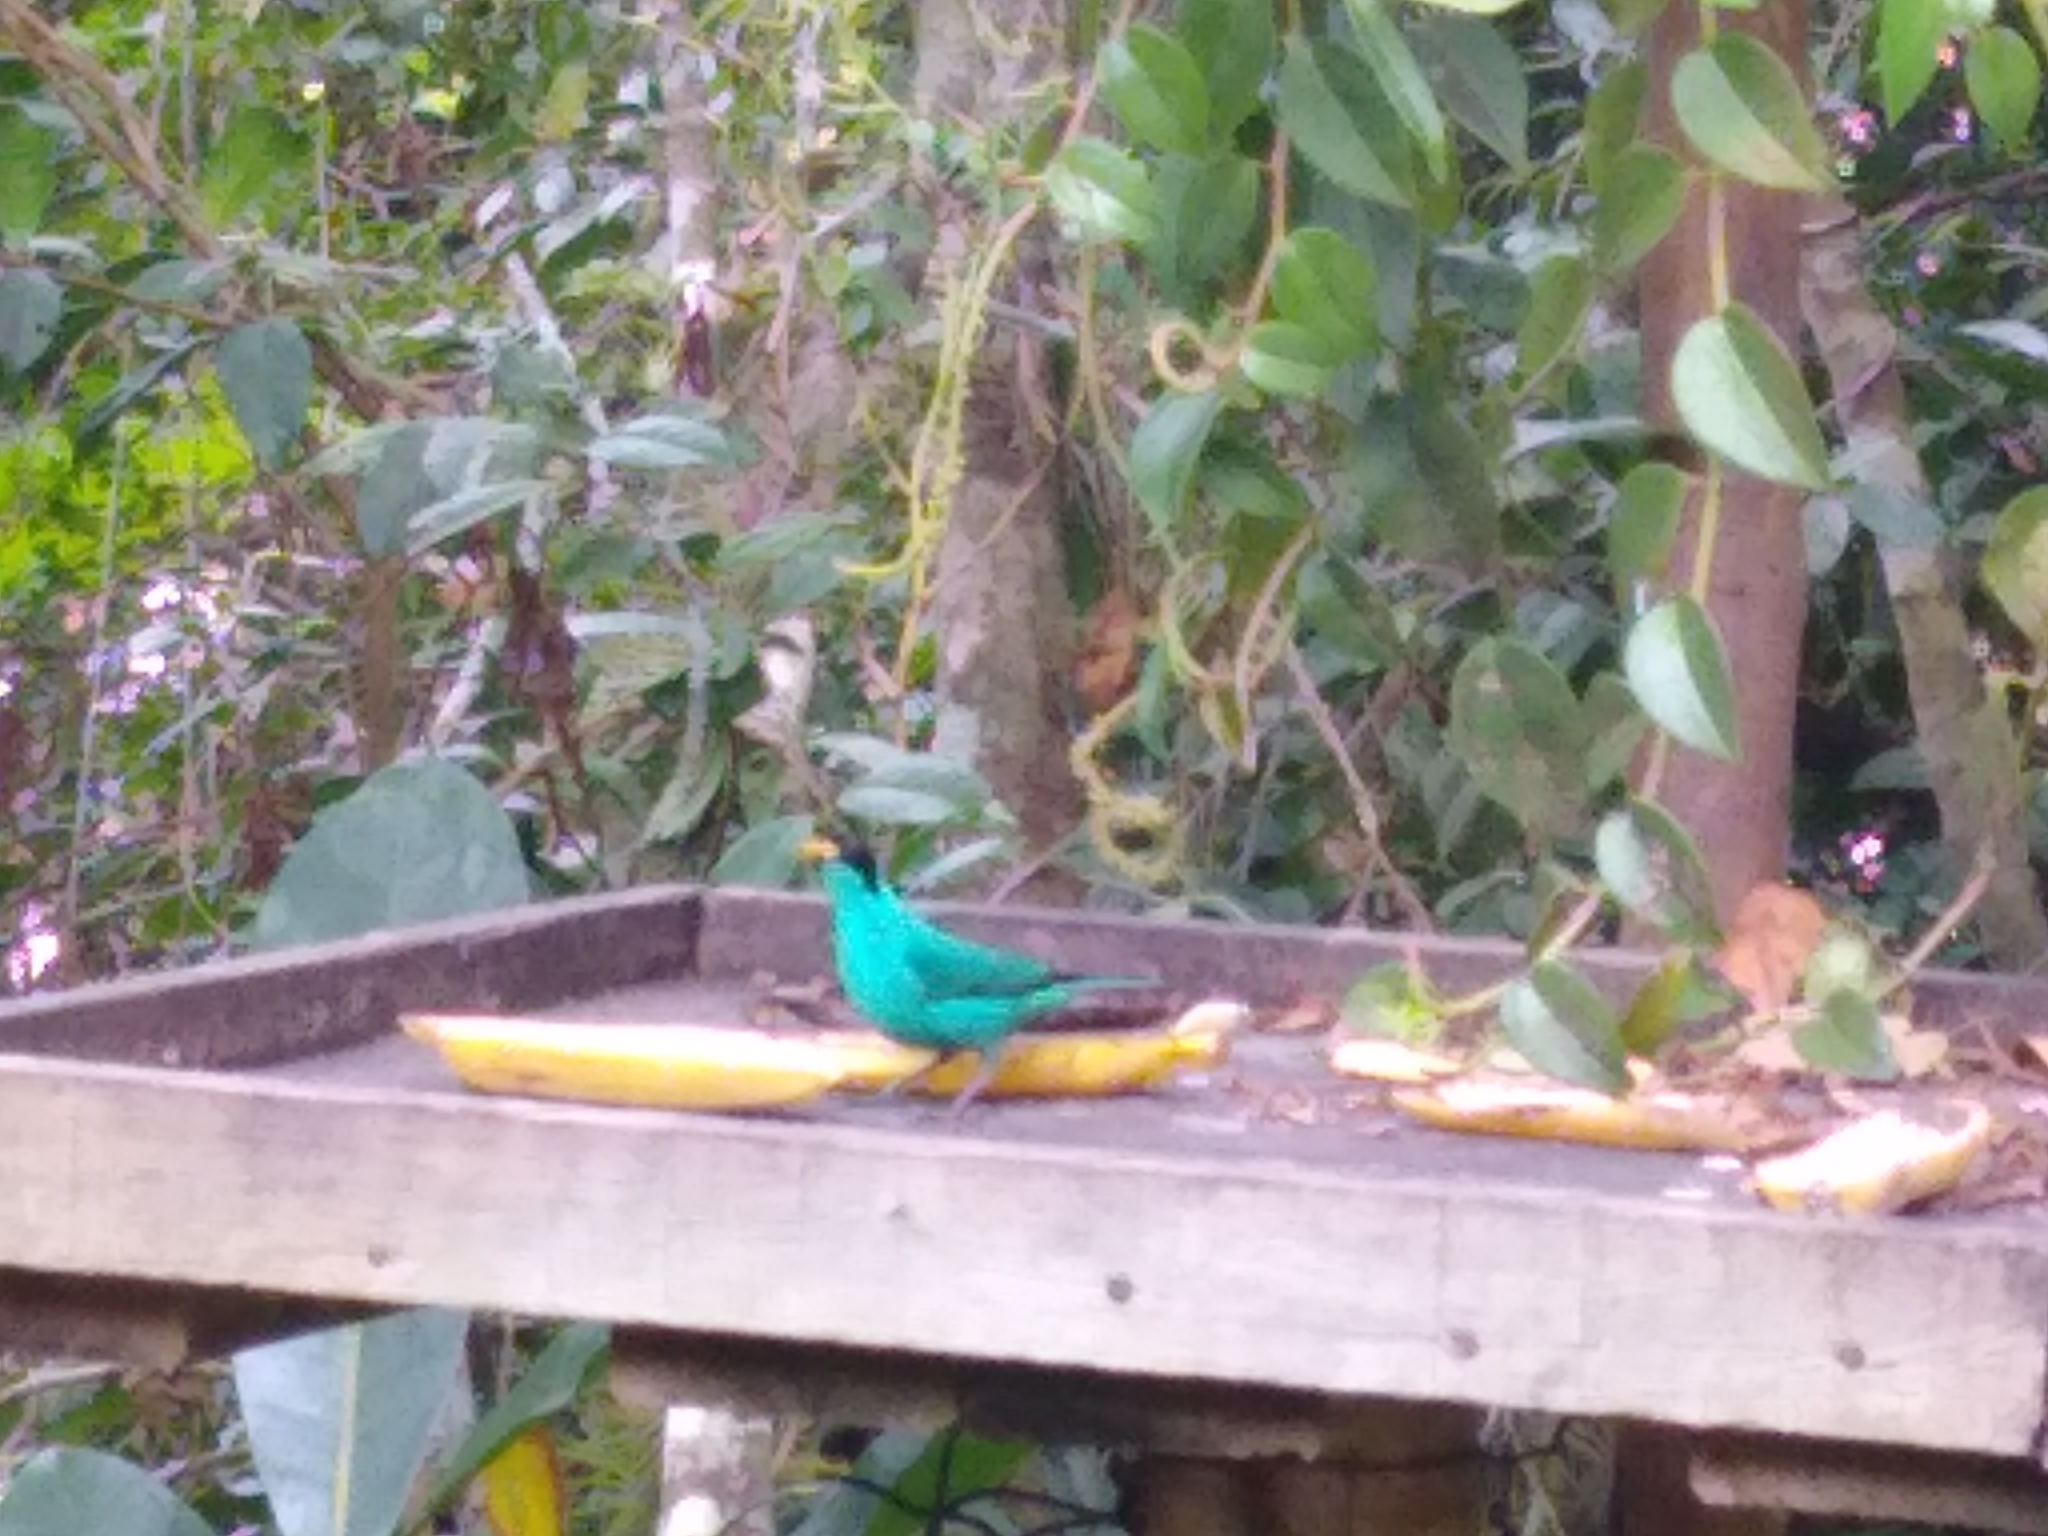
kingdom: Animalia
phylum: Chordata
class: Aves
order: Passeriformes
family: Thraupidae
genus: Chlorophanes
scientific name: Chlorophanes spiza
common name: Green honeycreeper
